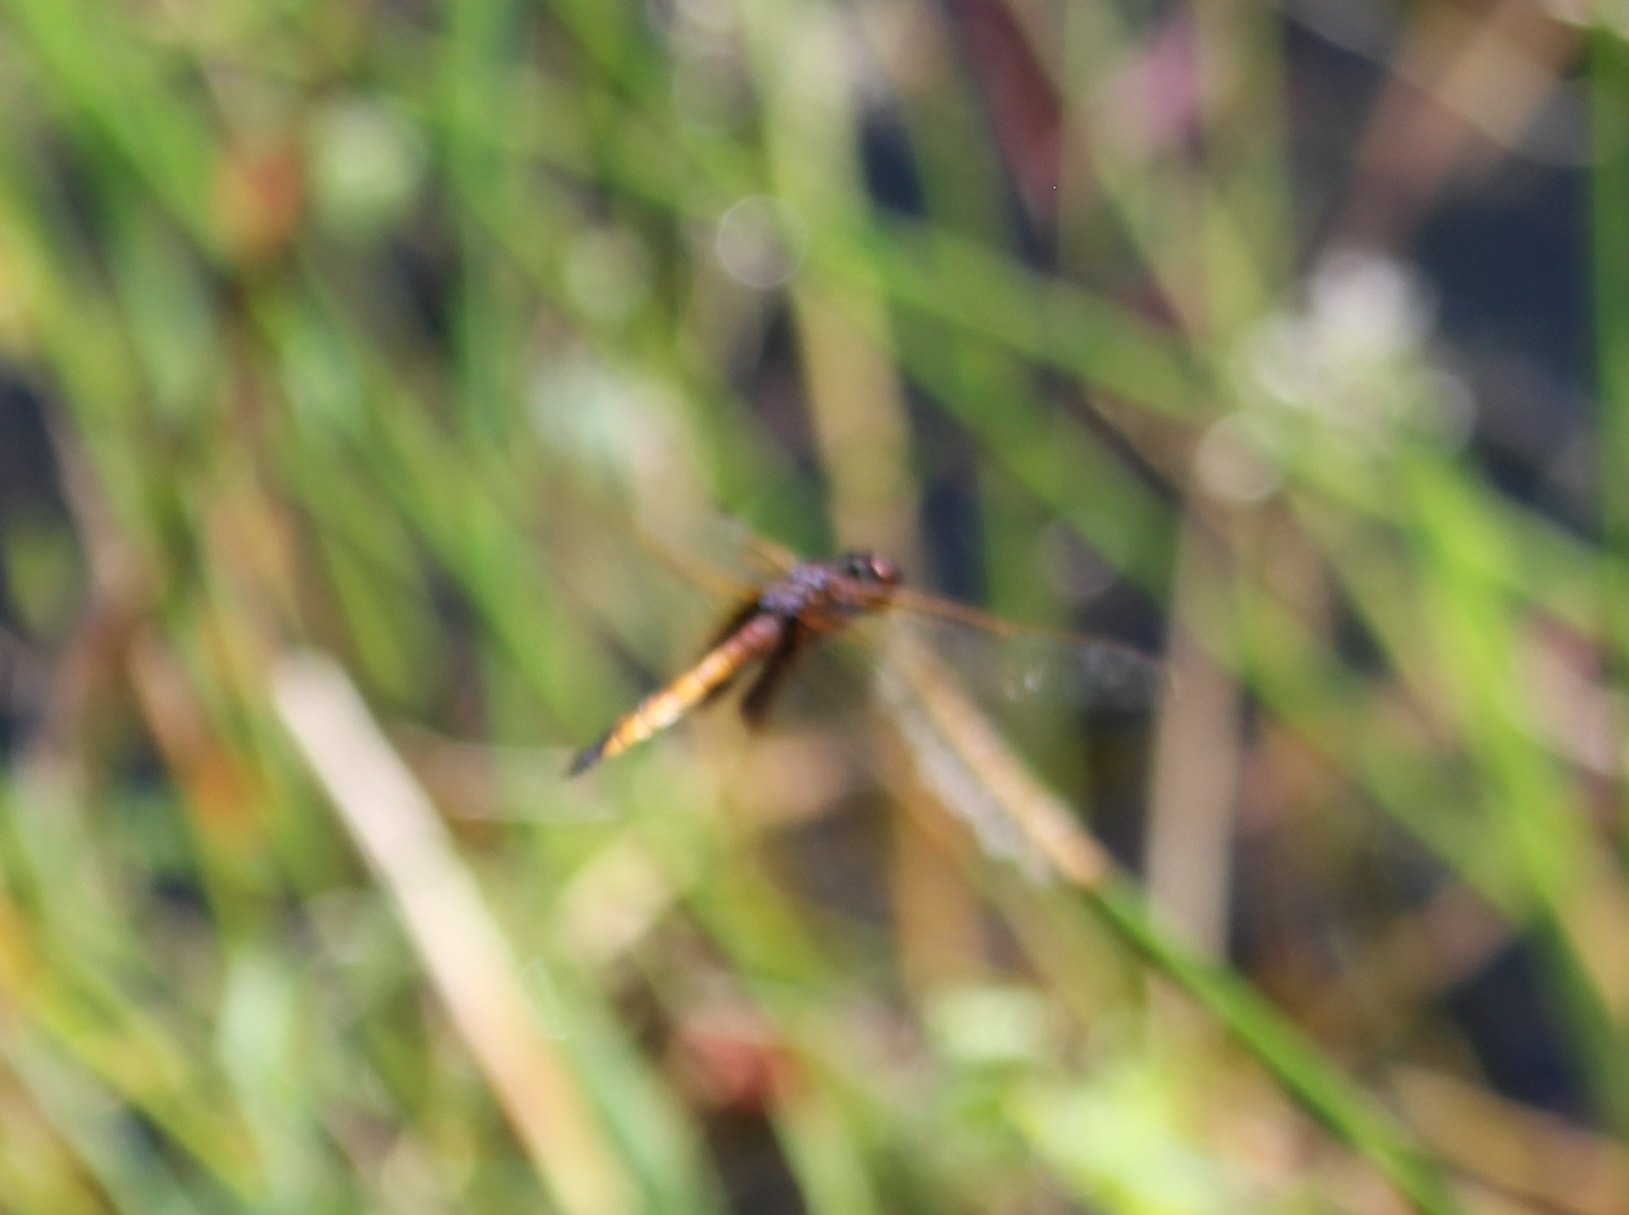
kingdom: Animalia
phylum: Arthropoda
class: Insecta
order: Odonata
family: Libellulidae
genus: Miathyria
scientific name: Miathyria marcella
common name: Hyacinth glider
